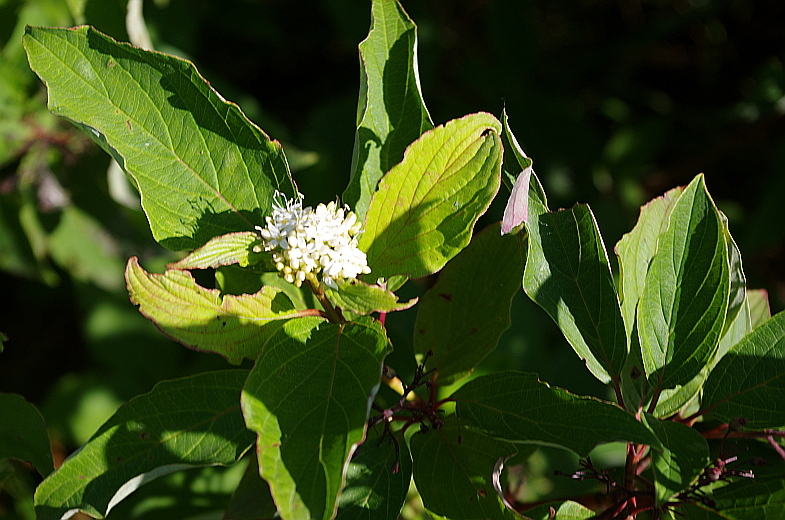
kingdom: Plantae
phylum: Tracheophyta
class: Magnoliopsida
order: Cornales
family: Cornaceae
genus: Cornus
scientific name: Cornus sericea
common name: Red-osier dogwood
